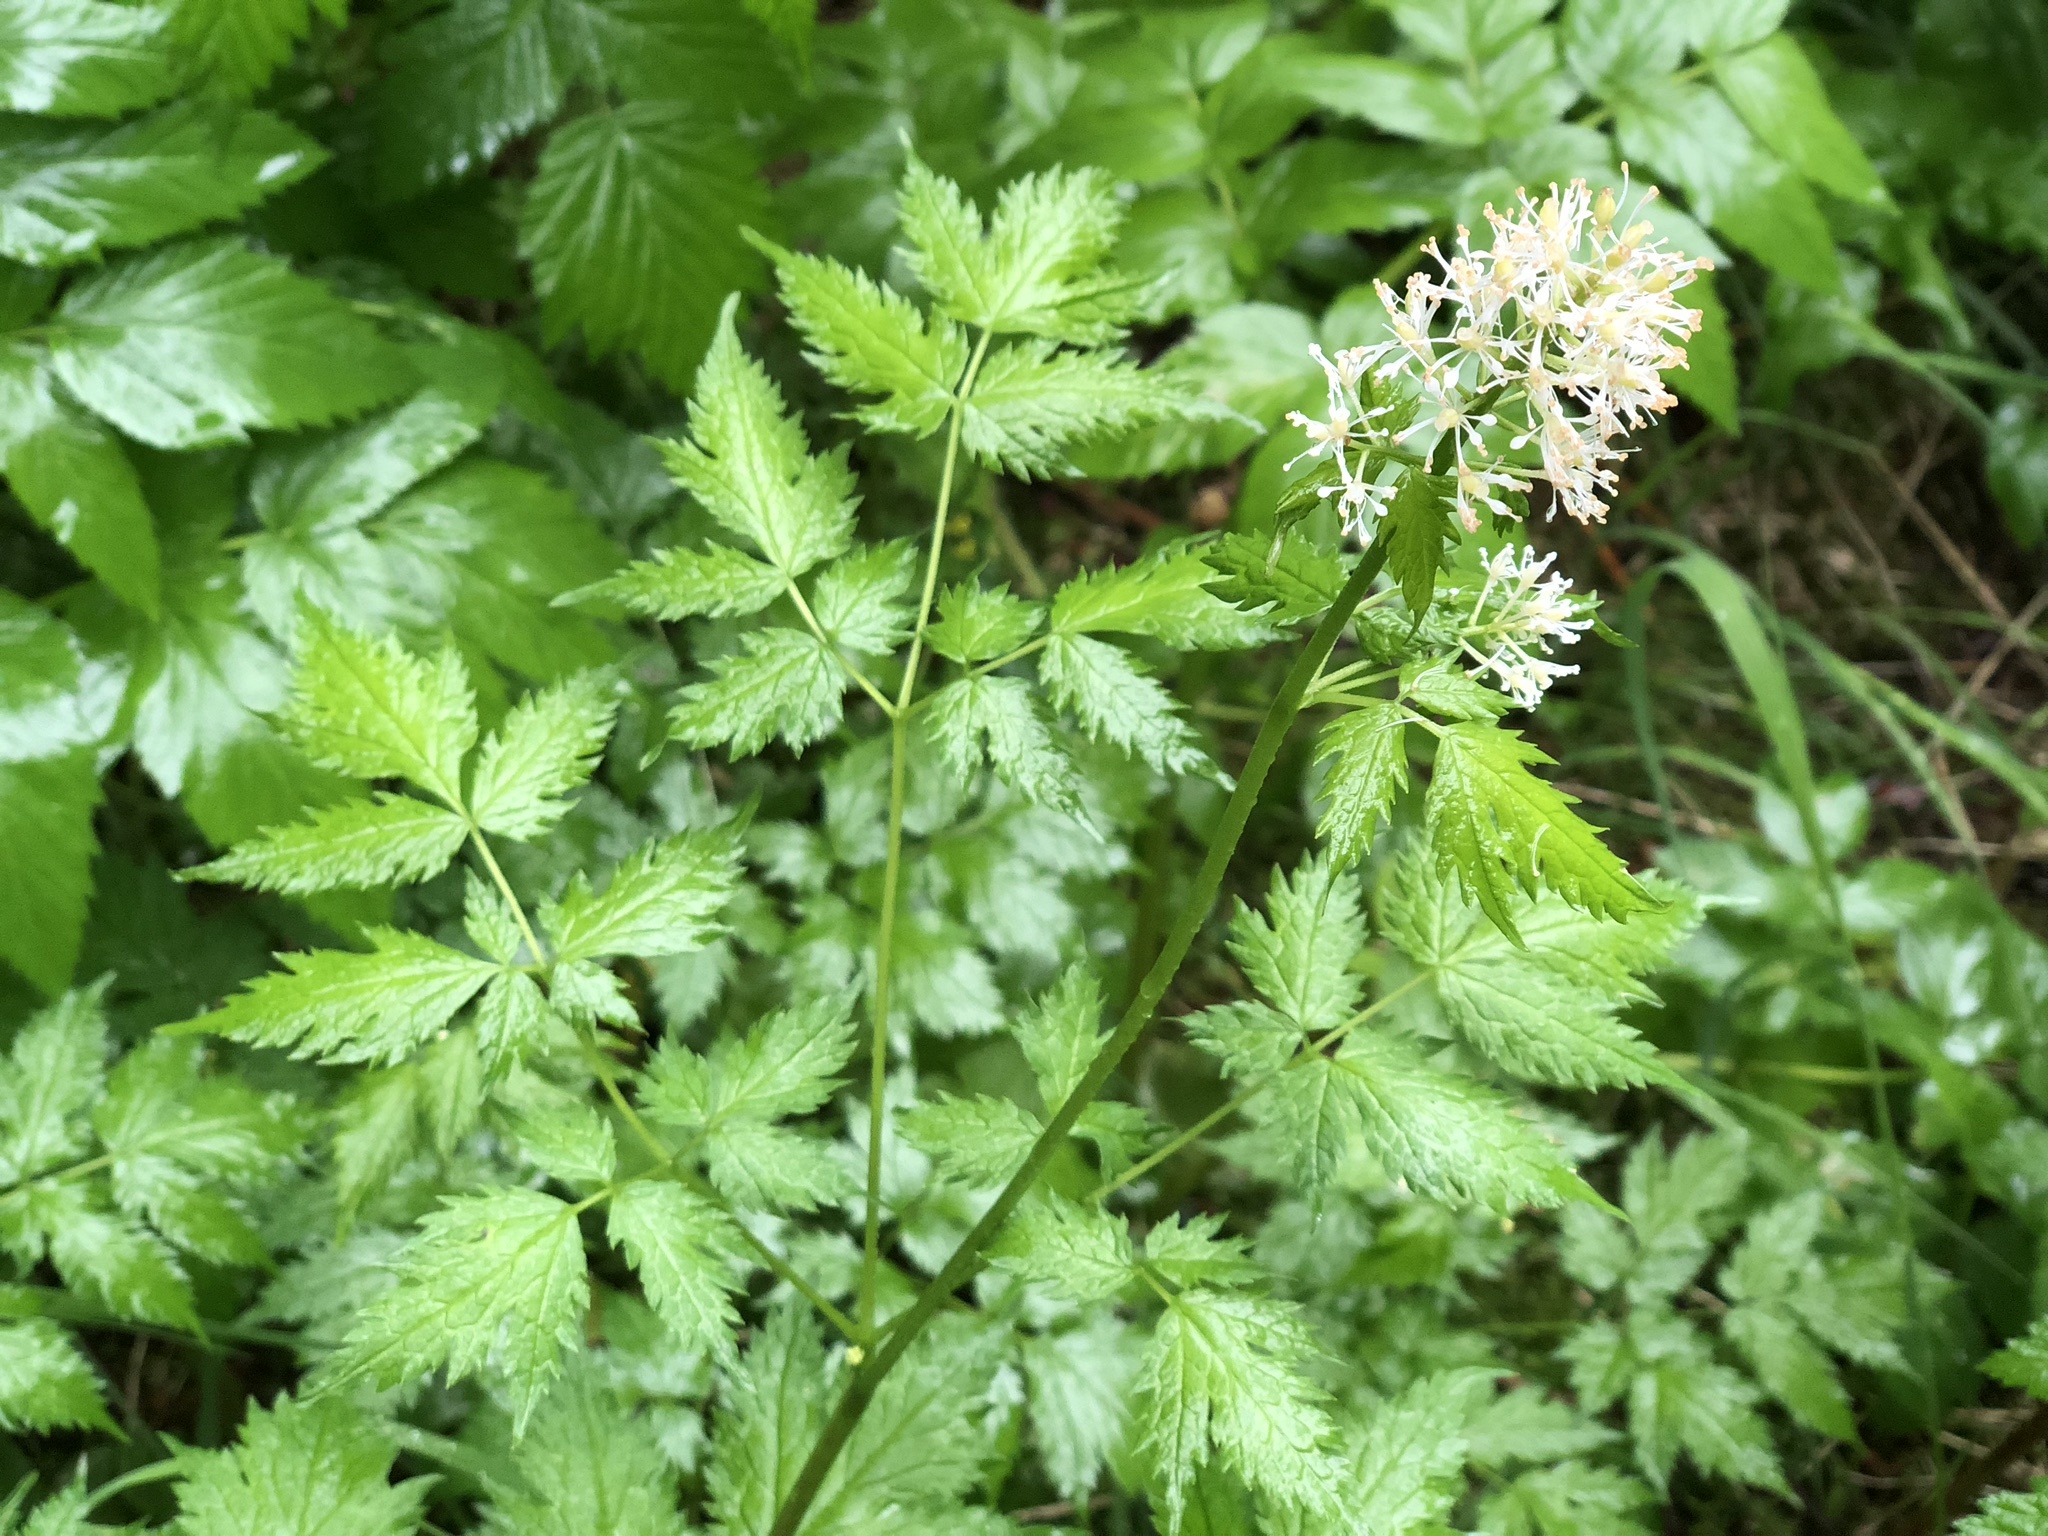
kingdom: Plantae
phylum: Tracheophyta
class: Magnoliopsida
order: Ranunculales
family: Ranunculaceae
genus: Actaea
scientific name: Actaea rubra
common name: Red baneberry
